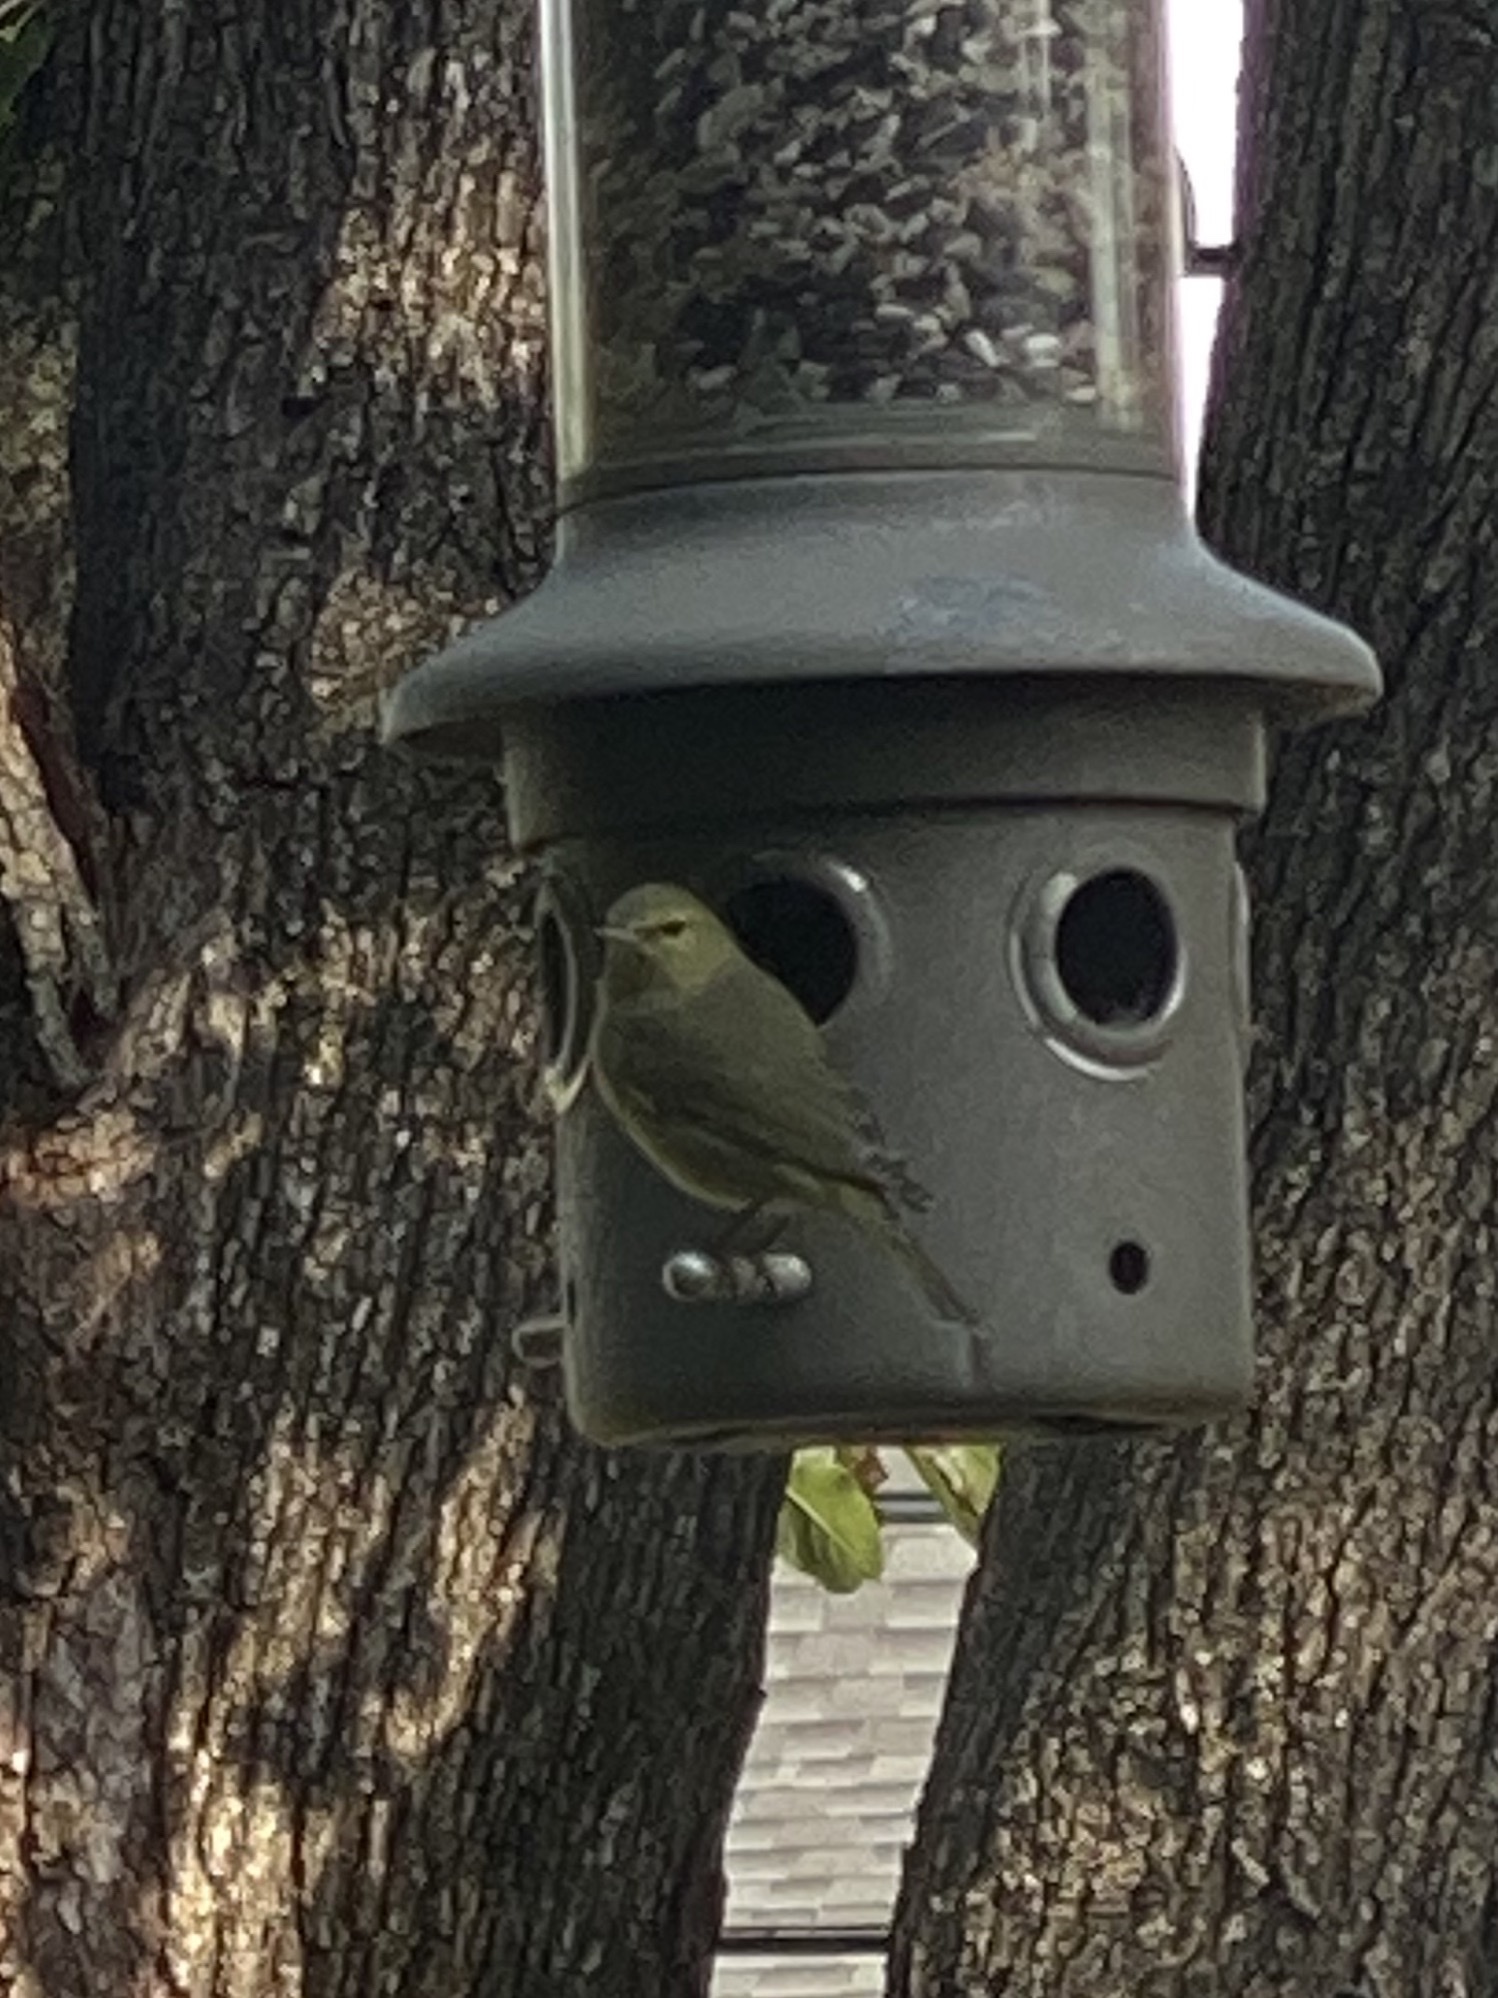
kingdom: Animalia
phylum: Chordata
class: Aves
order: Passeriformes
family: Parulidae
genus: Leiothlypis
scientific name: Leiothlypis celata
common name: Orange-crowned warbler
